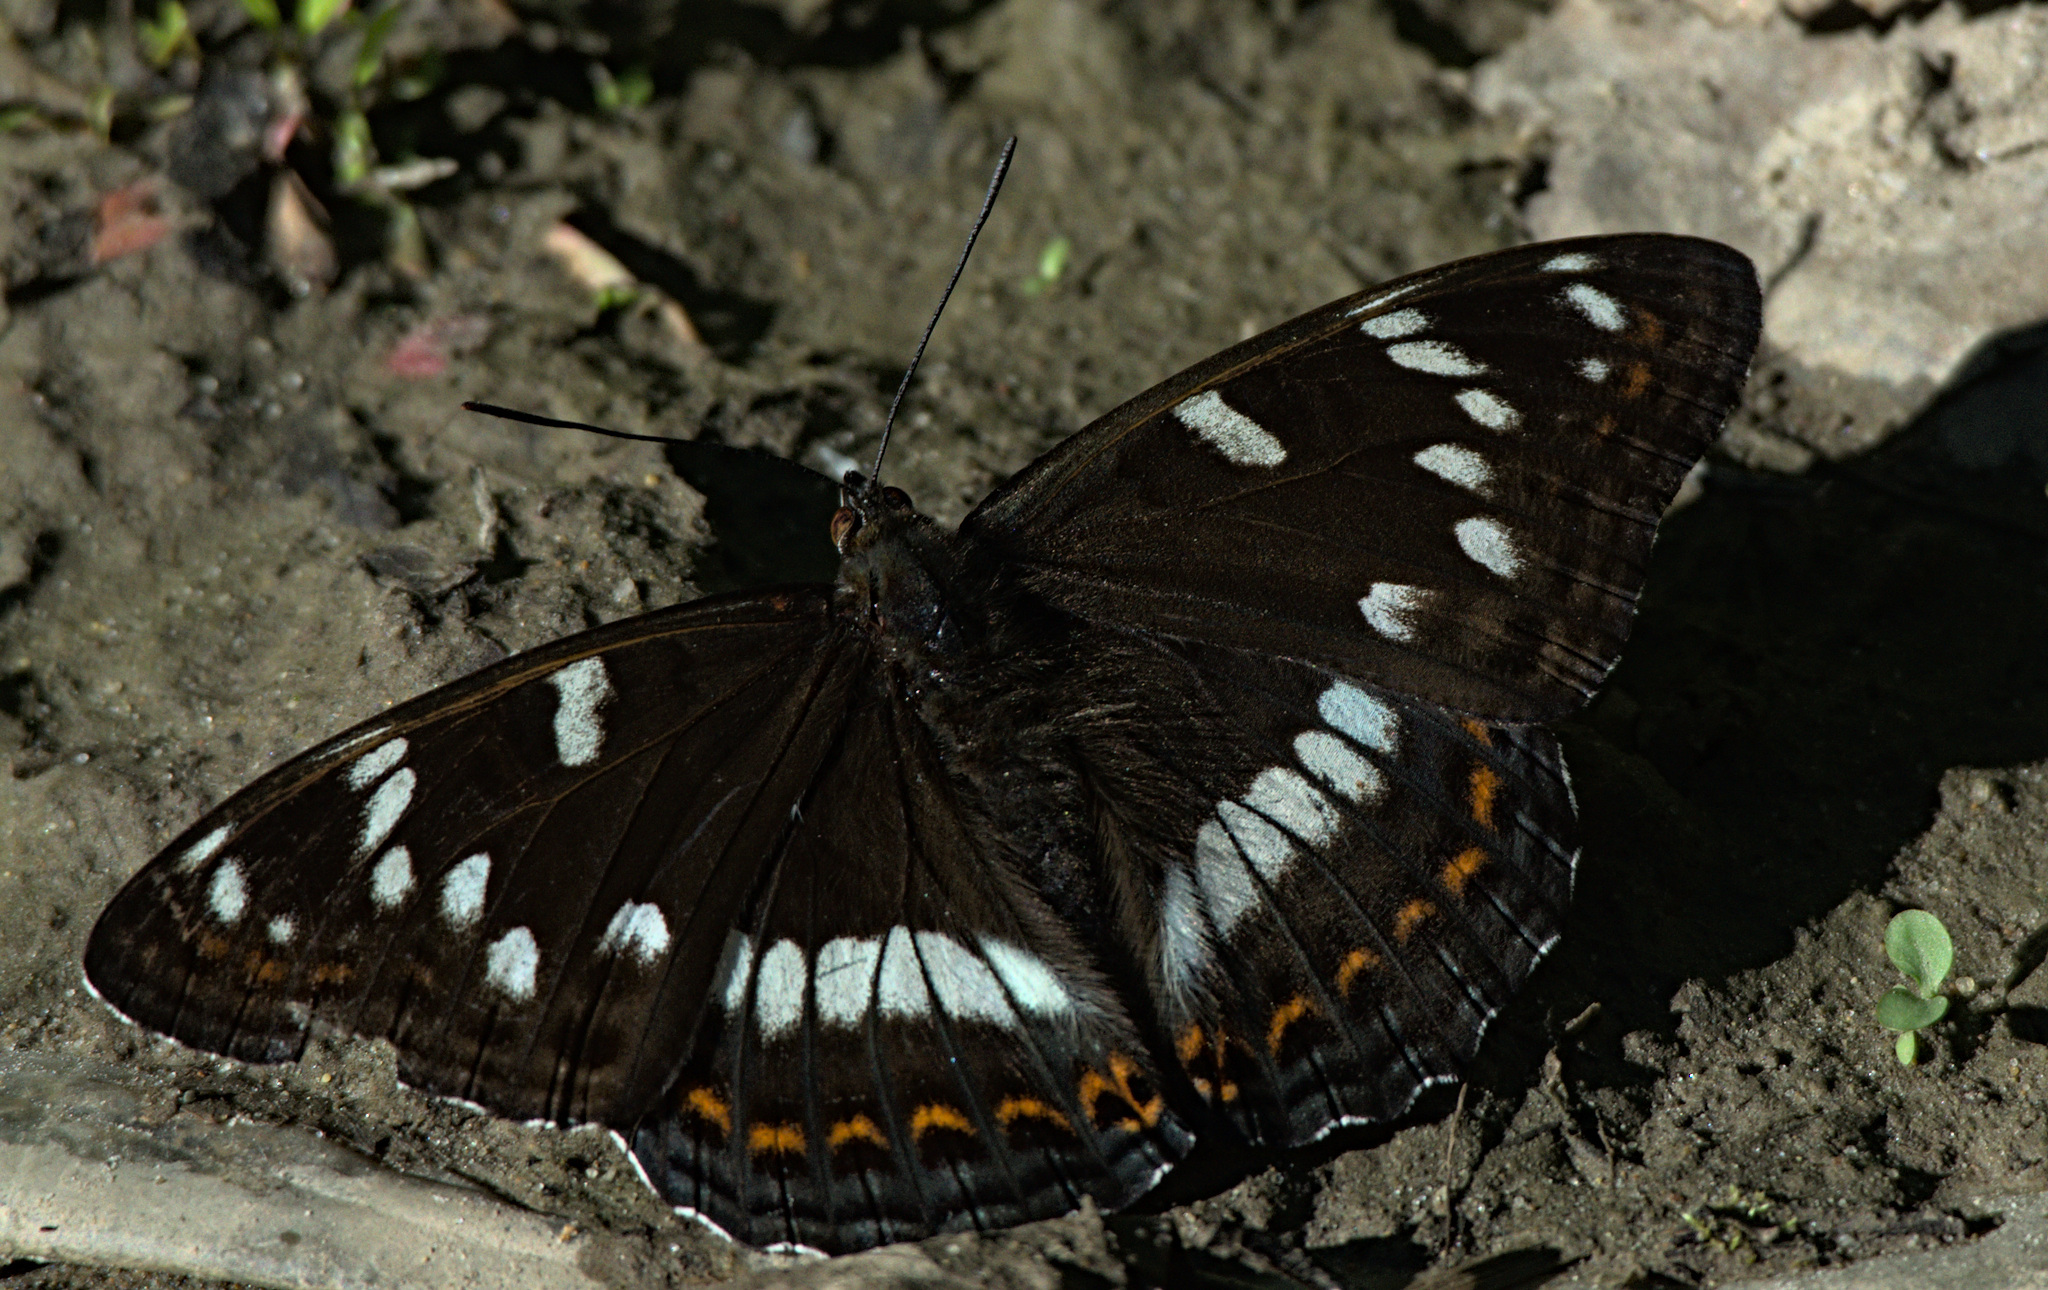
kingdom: Animalia
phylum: Arthropoda
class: Insecta
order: Lepidoptera
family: Nymphalidae
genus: Limenitis
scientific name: Limenitis populi
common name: Poplar admiral
